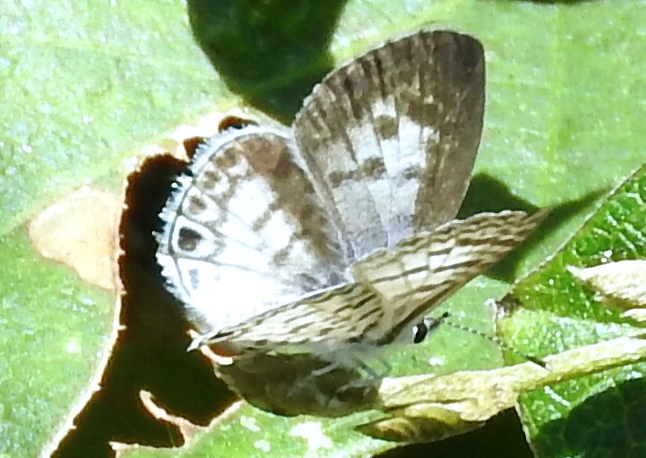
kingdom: Animalia
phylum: Arthropoda
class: Insecta
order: Lepidoptera
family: Lycaenidae
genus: Leptotes
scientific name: Leptotes theonus
